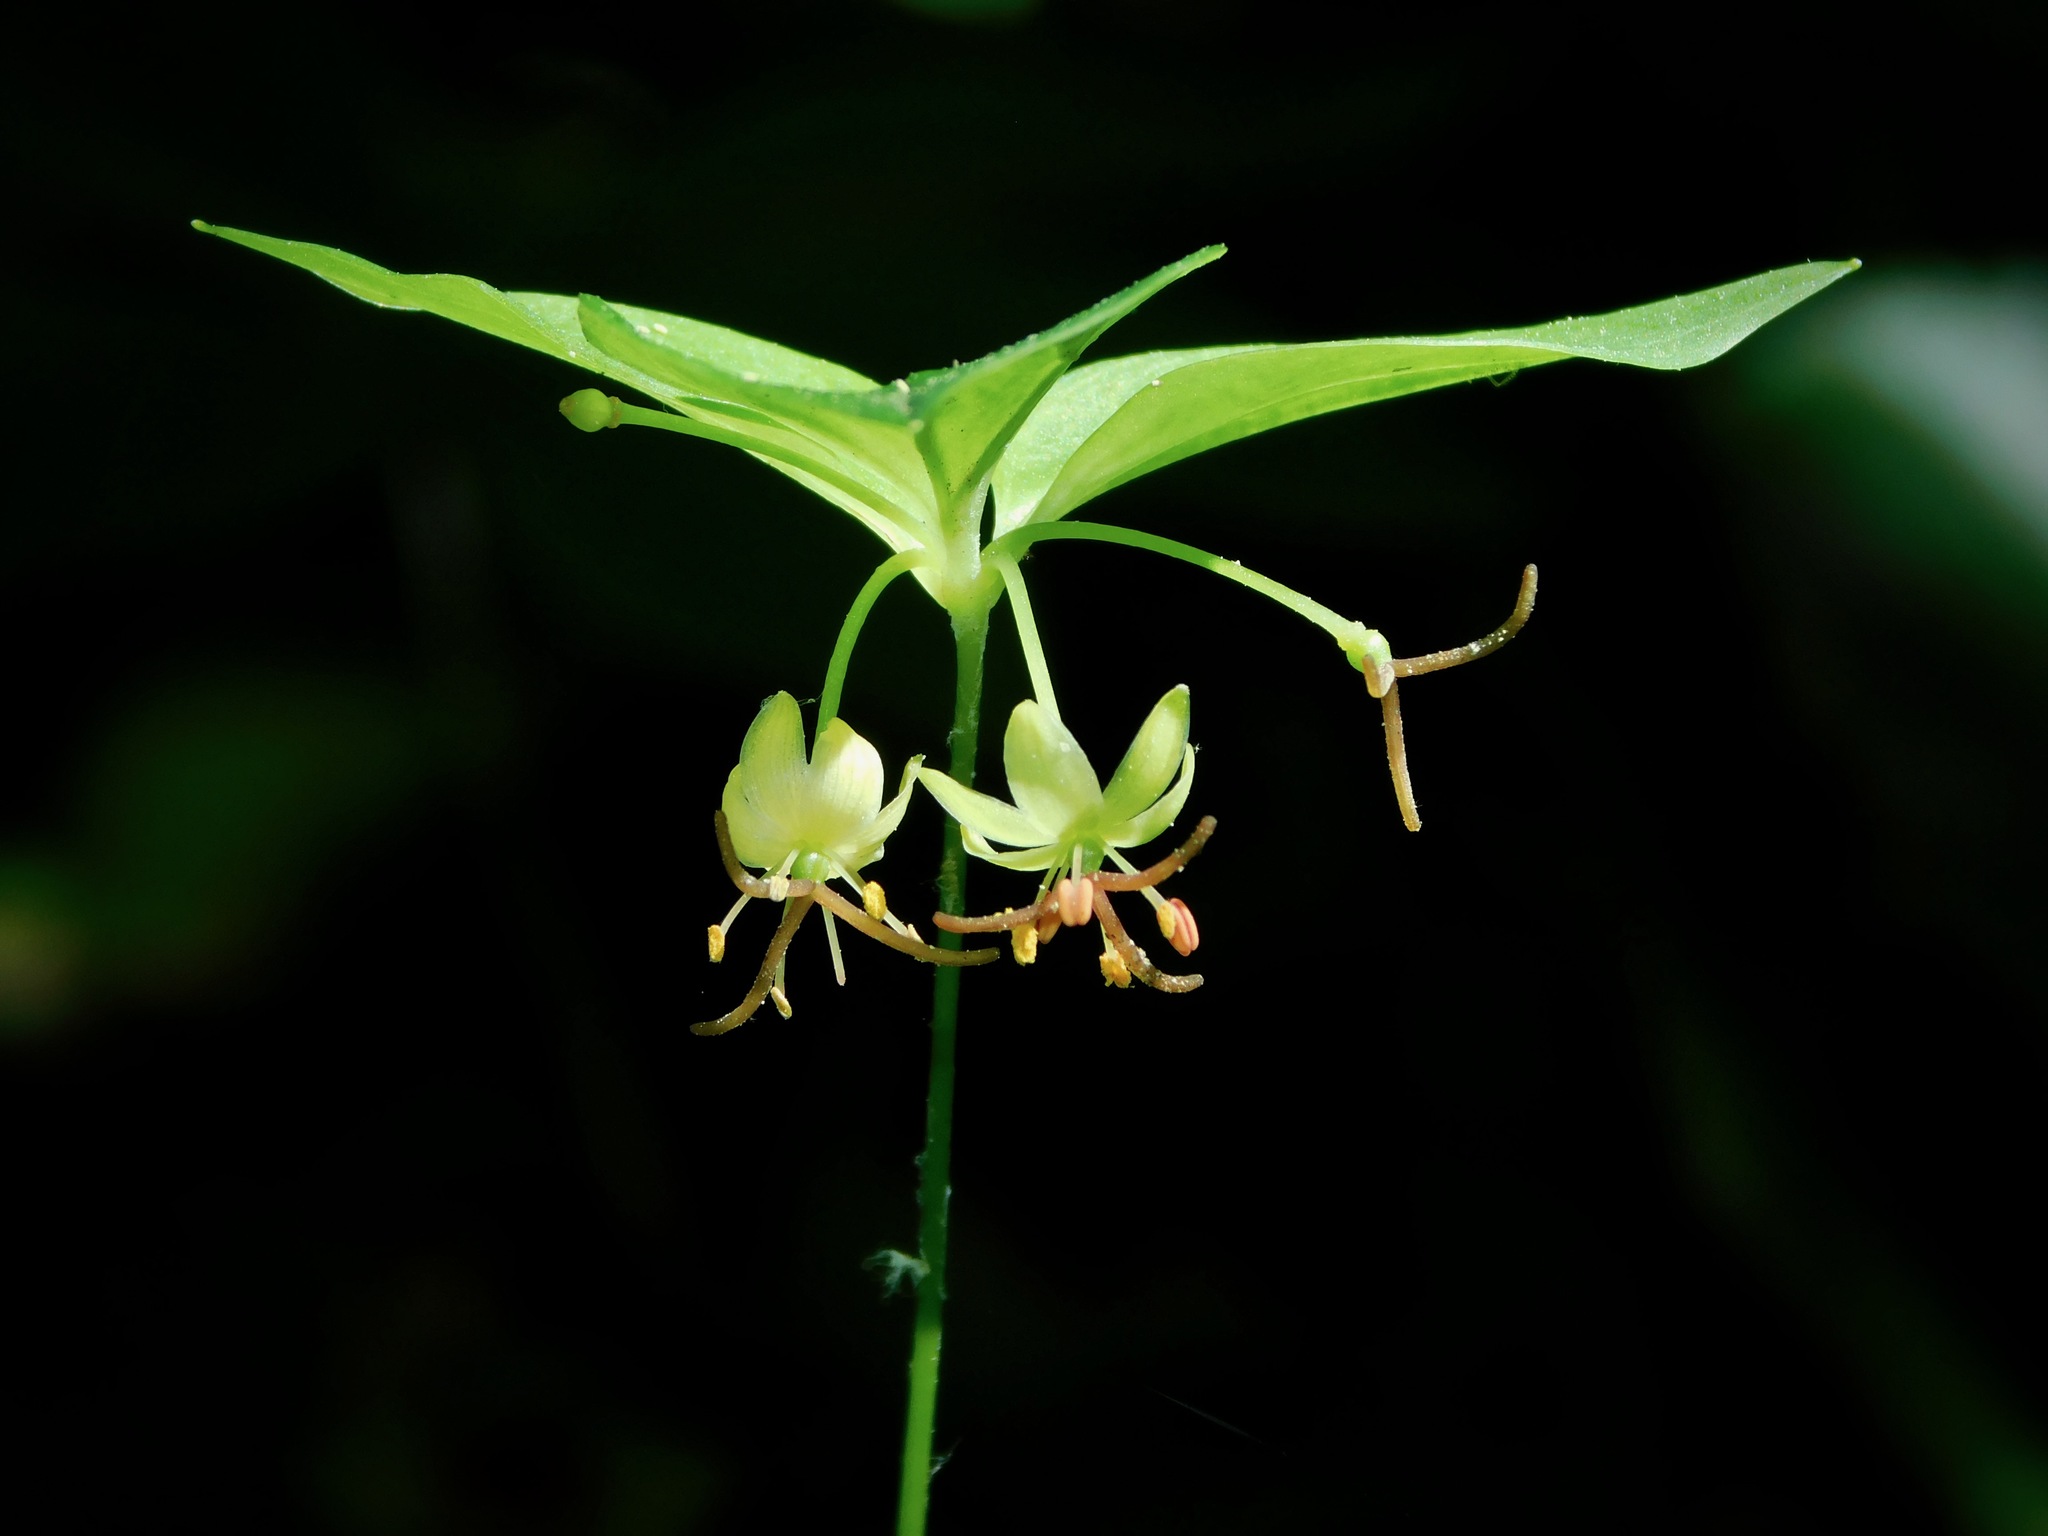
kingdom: Plantae
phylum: Tracheophyta
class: Liliopsida
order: Liliales
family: Liliaceae
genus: Medeola
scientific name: Medeola virginiana
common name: Indian cucumber-root
